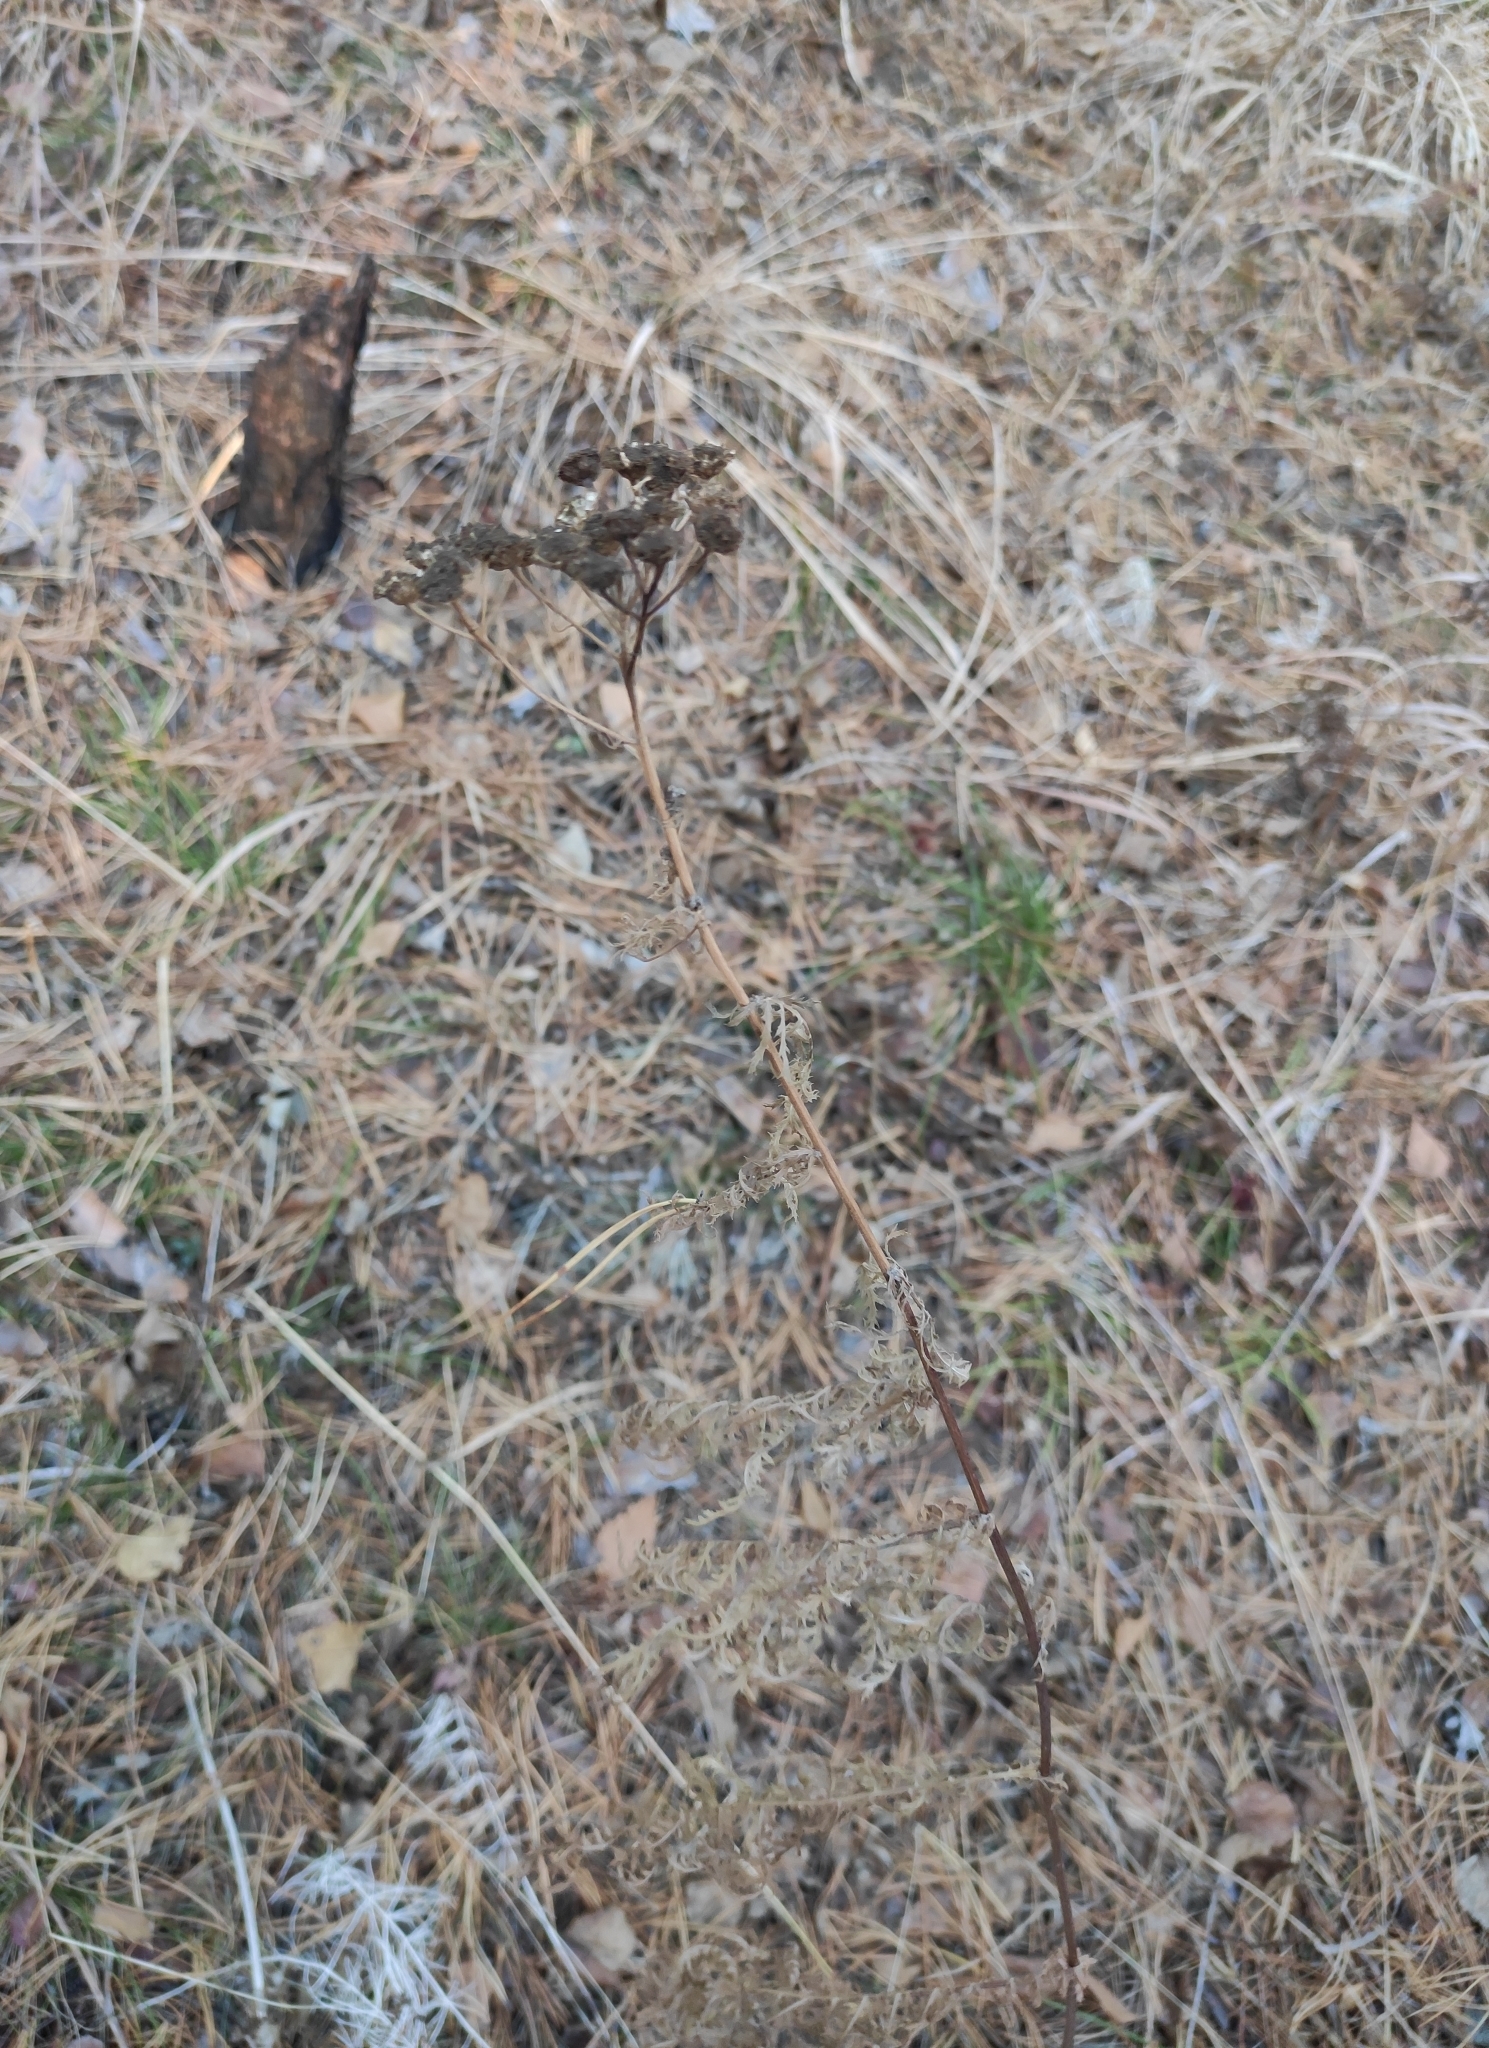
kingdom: Plantae
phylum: Tracheophyta
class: Magnoliopsida
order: Asterales
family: Asteraceae
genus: Tanacetum
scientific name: Tanacetum vulgare
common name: Common tansy
